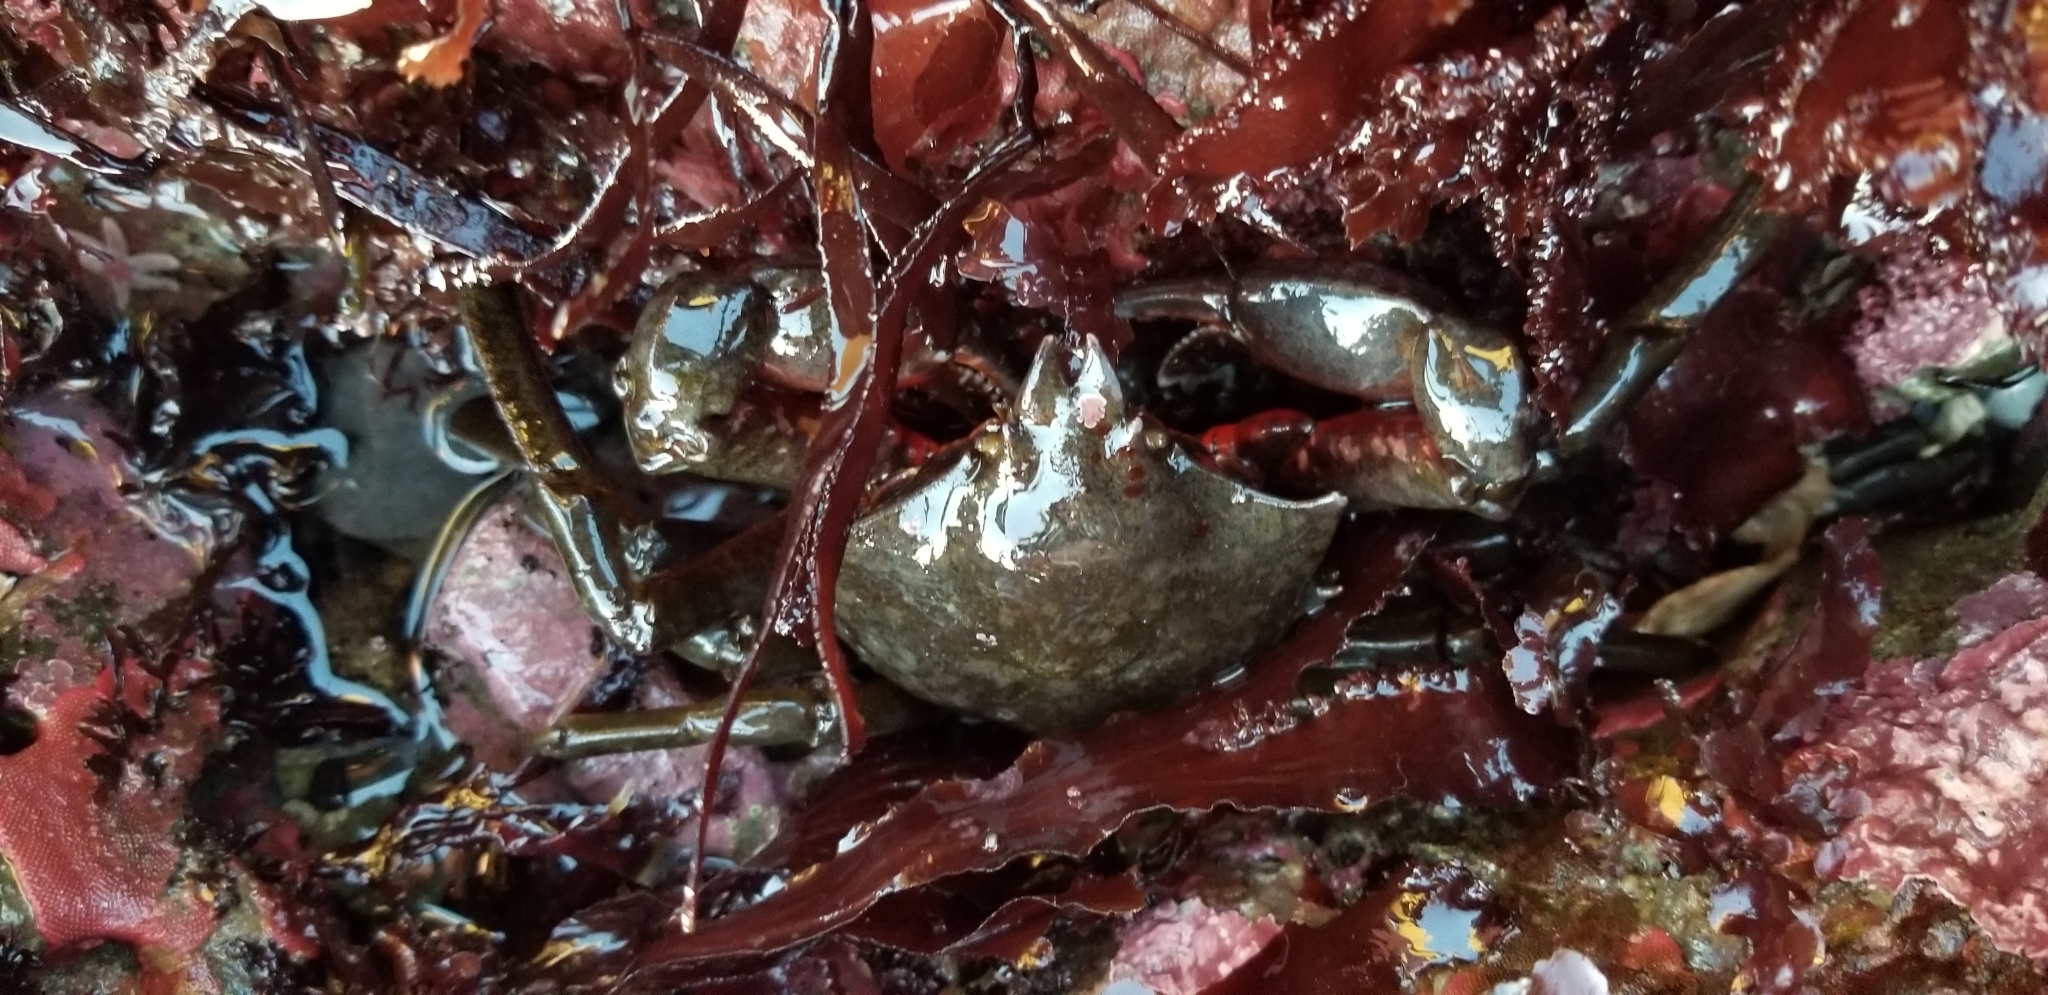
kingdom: Animalia
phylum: Arthropoda
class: Malacostraca
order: Decapoda
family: Epialtidae
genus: Pugettia
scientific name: Pugettia producta
